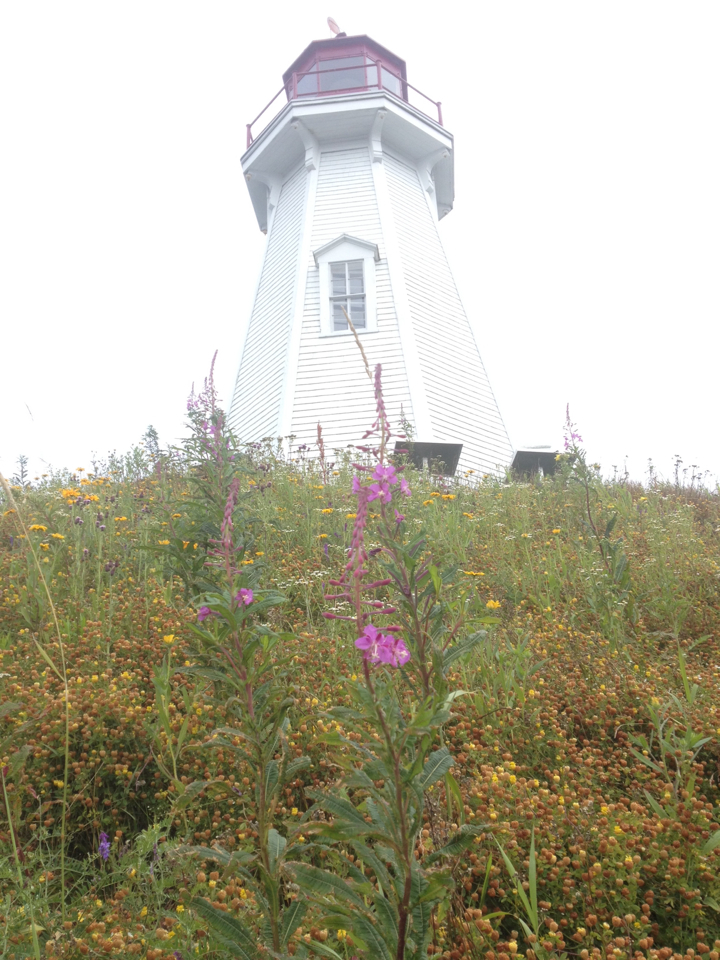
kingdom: Plantae
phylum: Tracheophyta
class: Magnoliopsida
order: Myrtales
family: Onagraceae
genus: Chamaenerion
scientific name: Chamaenerion angustifolium
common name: Fireweed
